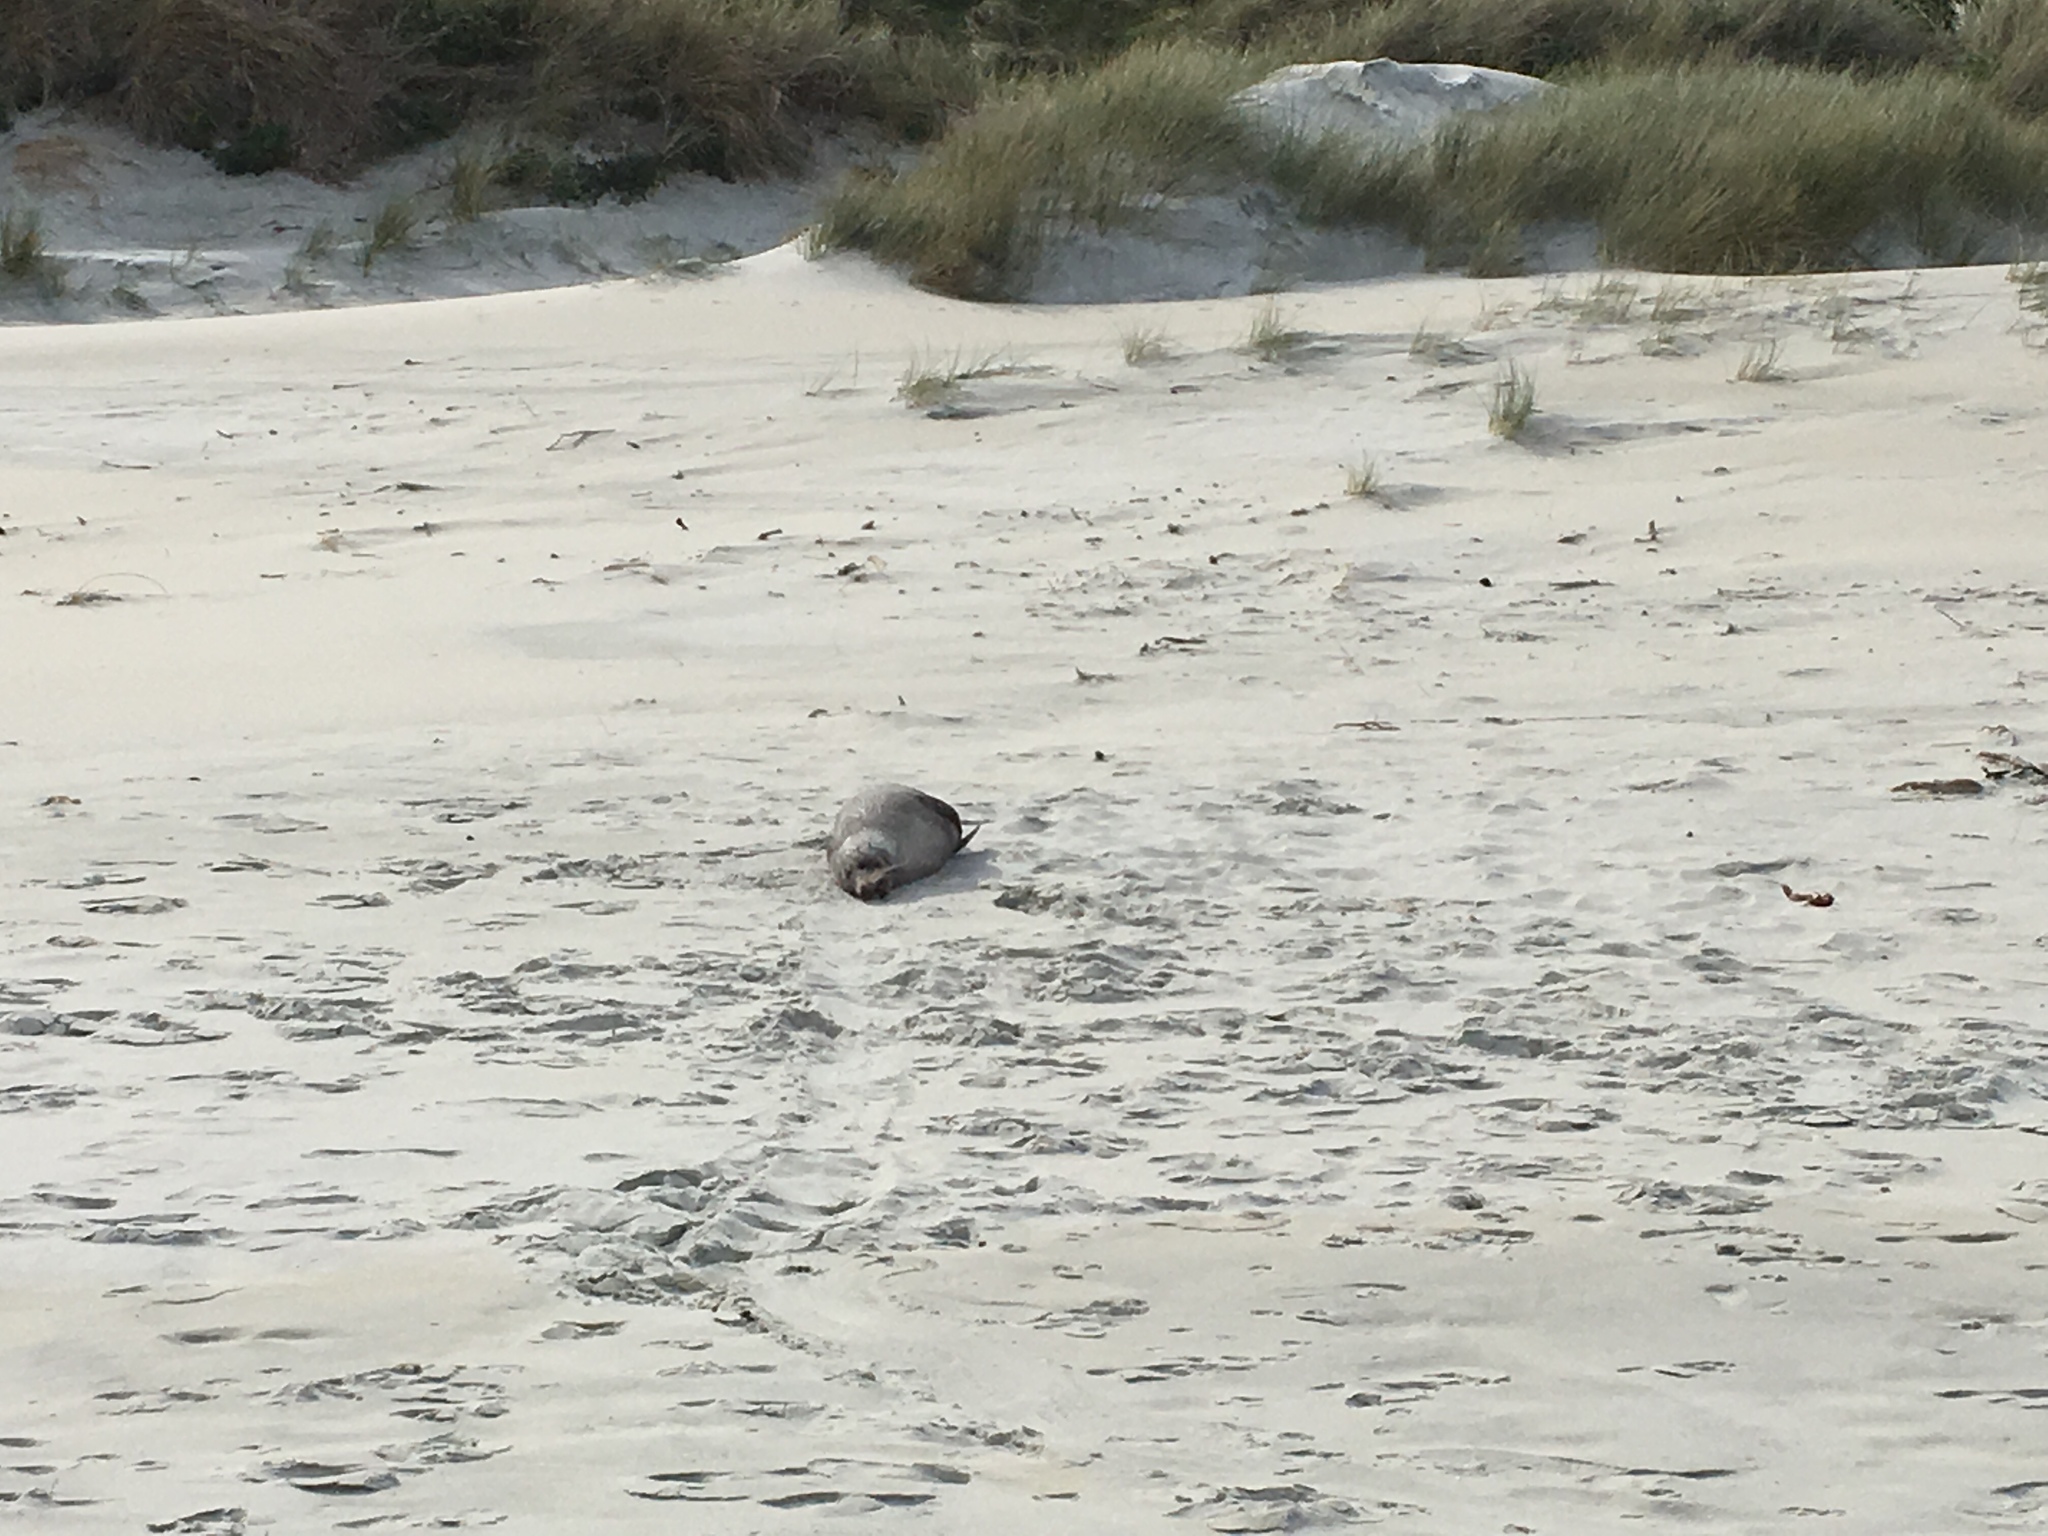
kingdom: Animalia
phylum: Chordata
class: Mammalia
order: Carnivora
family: Otariidae
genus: Arctocephalus
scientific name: Arctocephalus forsteri
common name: New zealand fur seal
